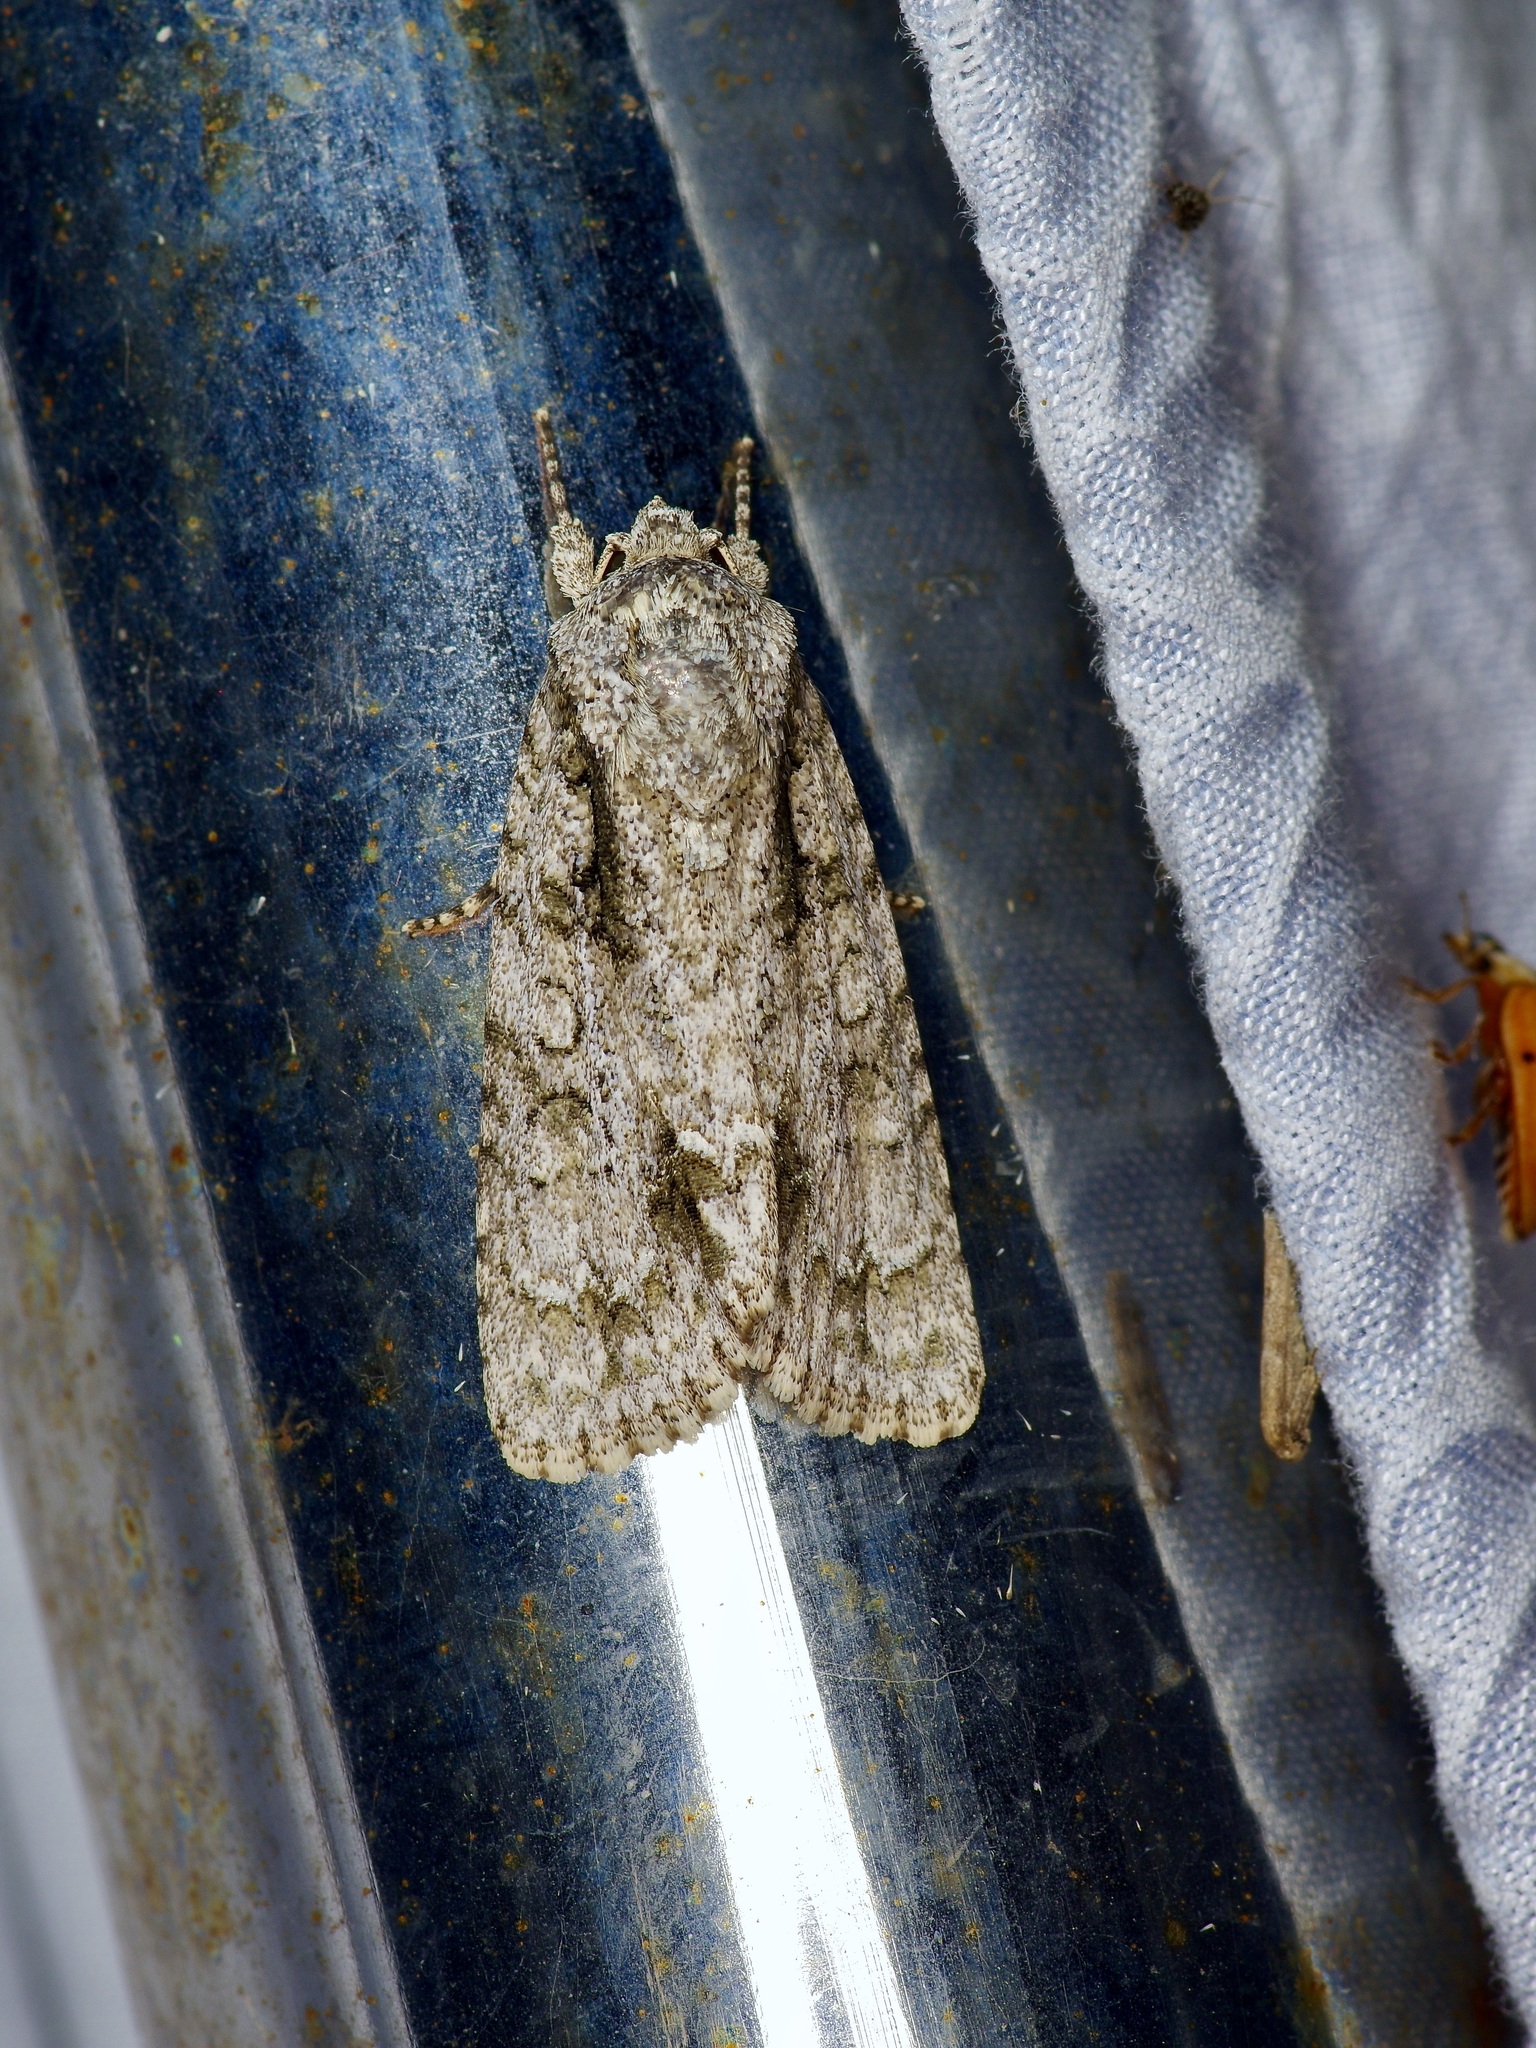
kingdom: Animalia
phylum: Arthropoda
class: Insecta
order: Lepidoptera
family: Noctuidae
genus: Acronicta
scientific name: Acronicta clarescens
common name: Clear dagger
